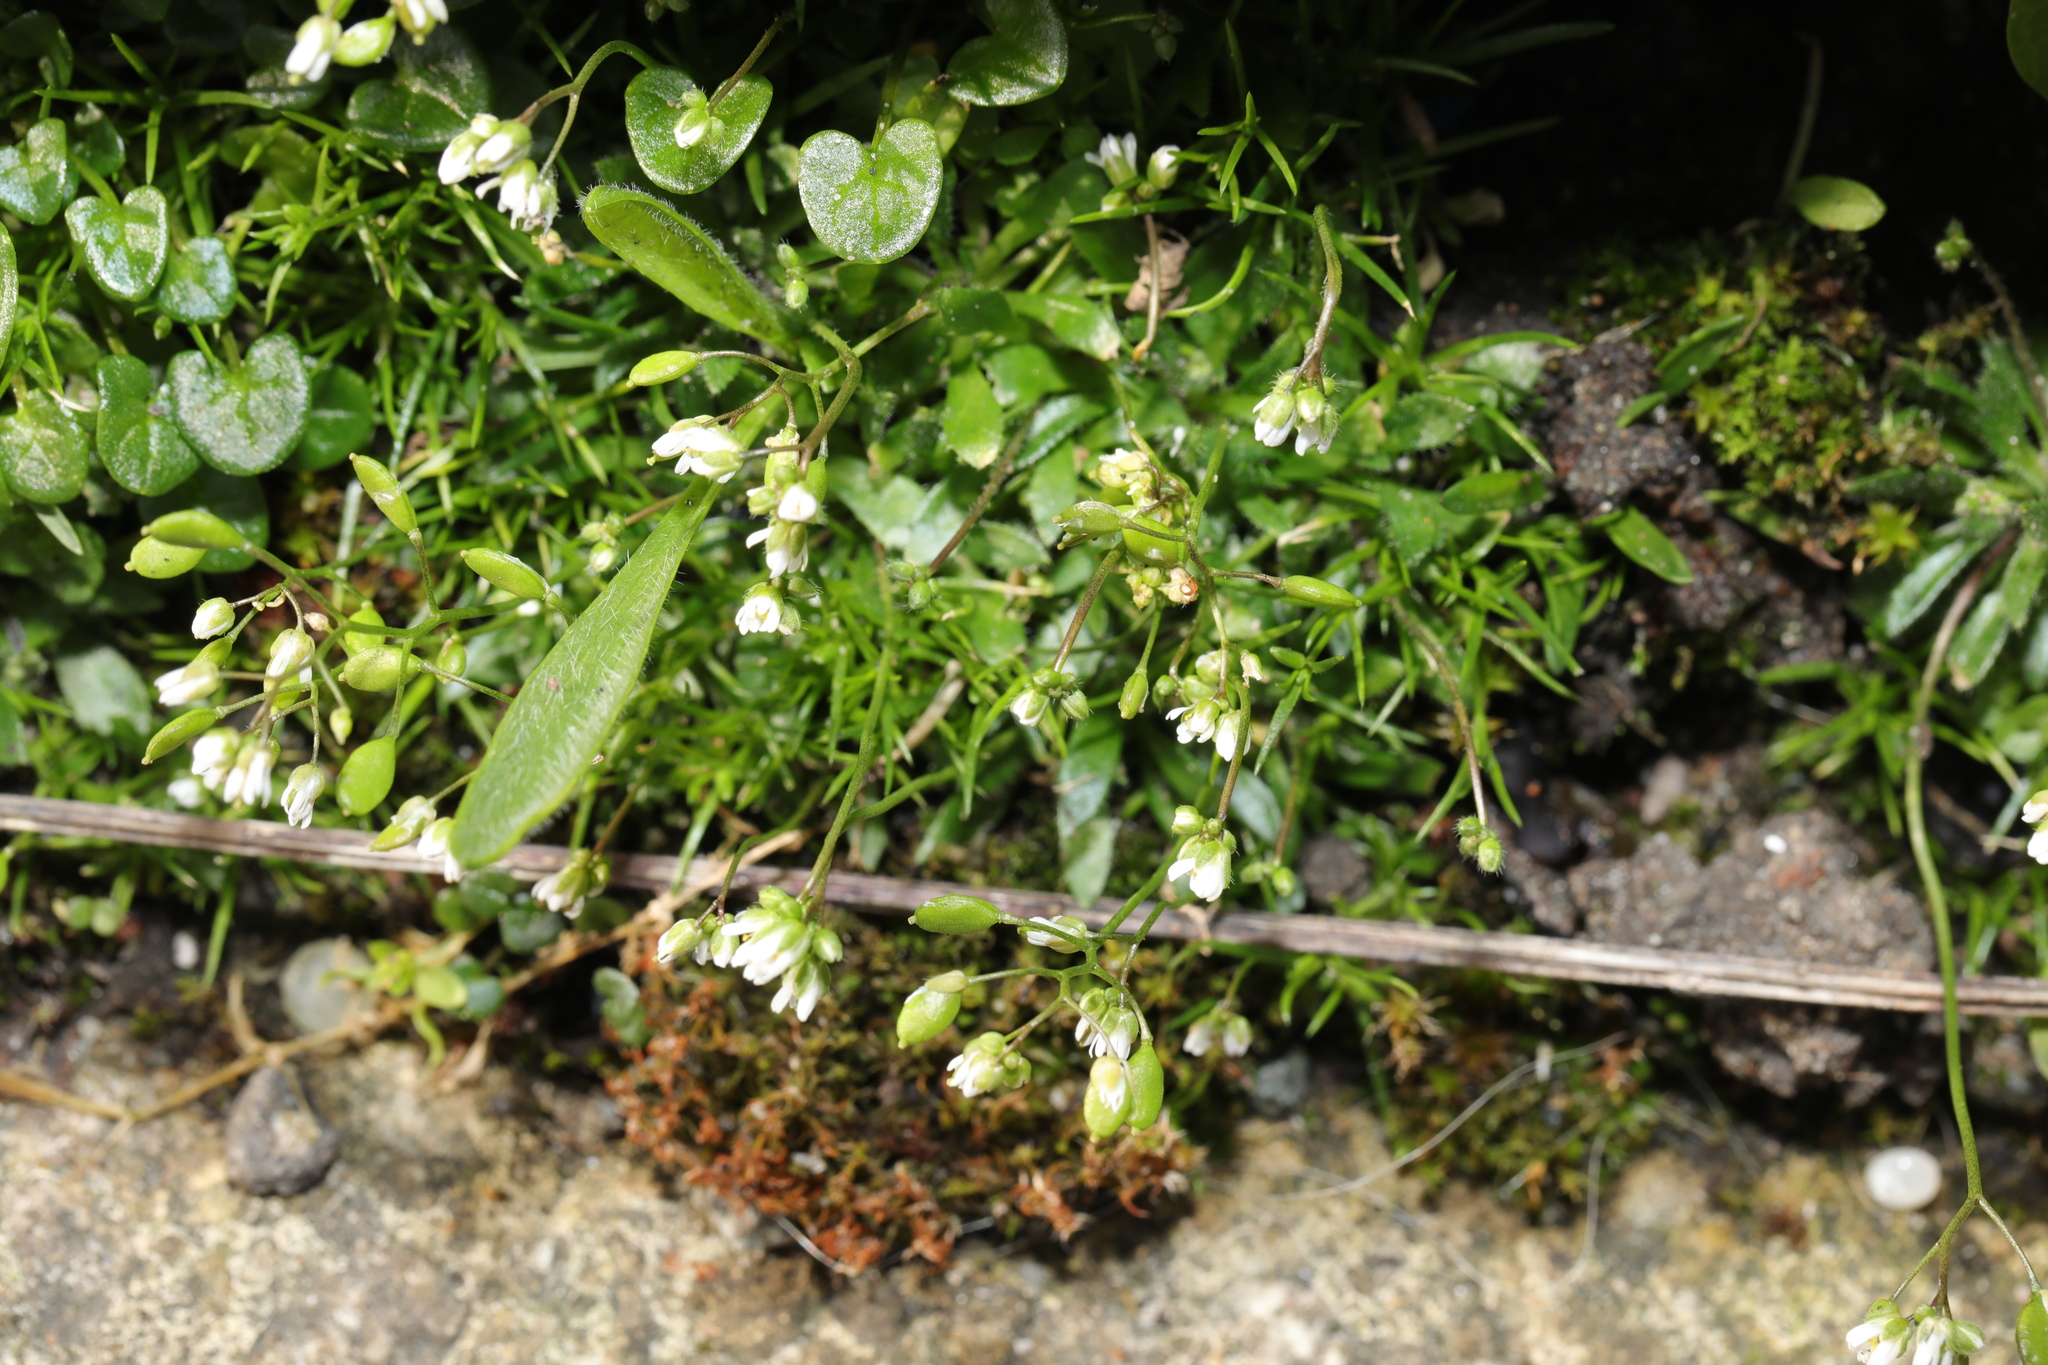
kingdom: Plantae
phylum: Tracheophyta
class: Magnoliopsida
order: Brassicales
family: Brassicaceae
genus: Draba
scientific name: Draba verna
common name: Spring draba
